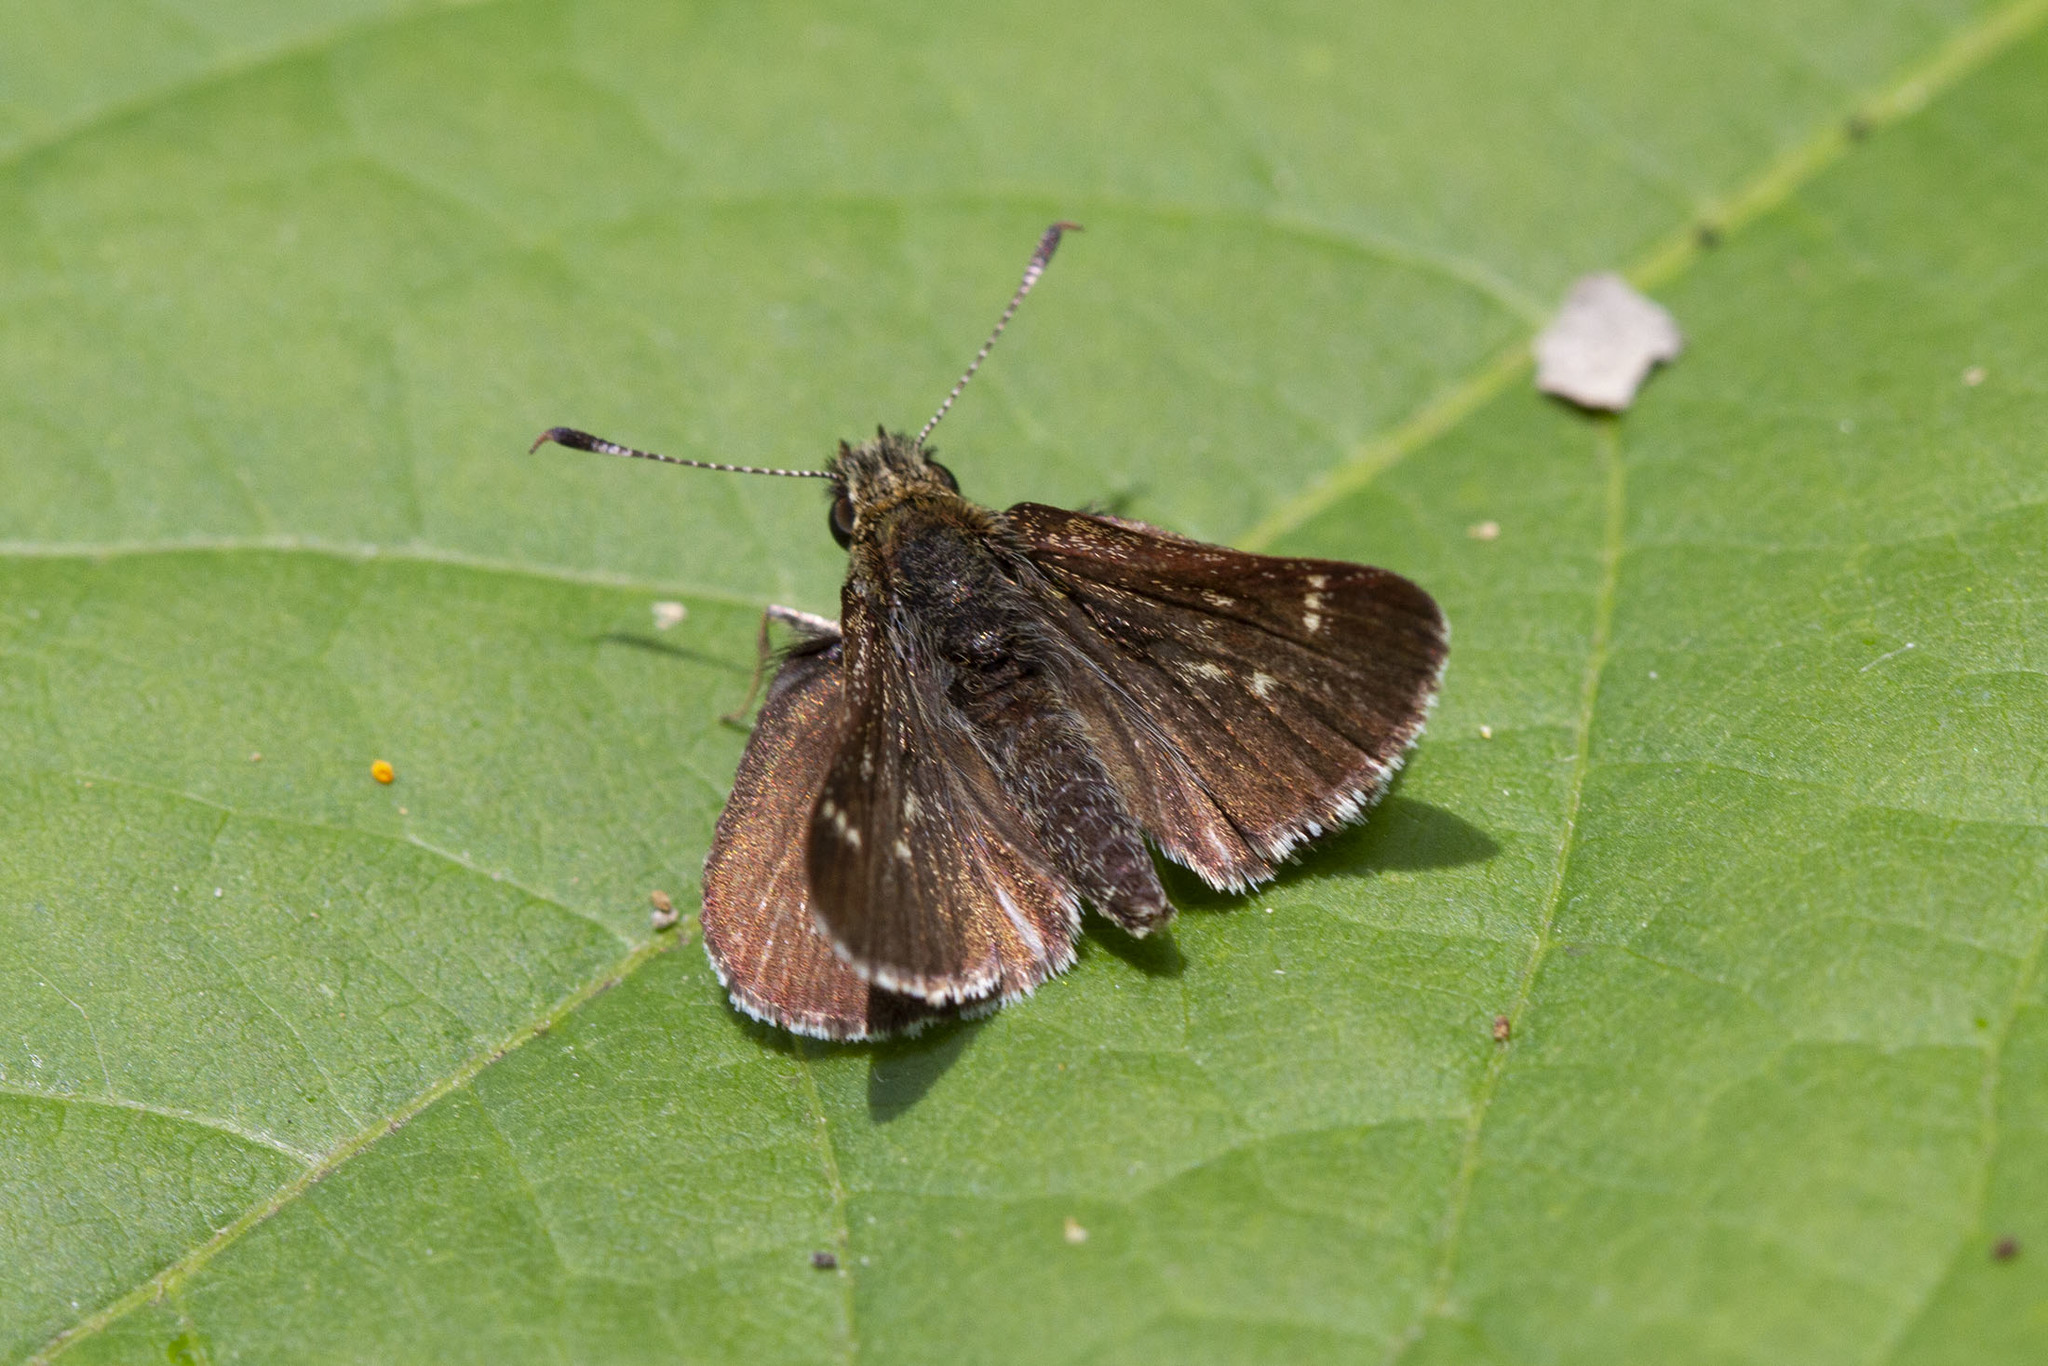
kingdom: Animalia
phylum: Arthropoda
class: Insecta
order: Lepidoptera
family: Hesperiidae
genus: Mastor
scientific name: Mastor hegon
